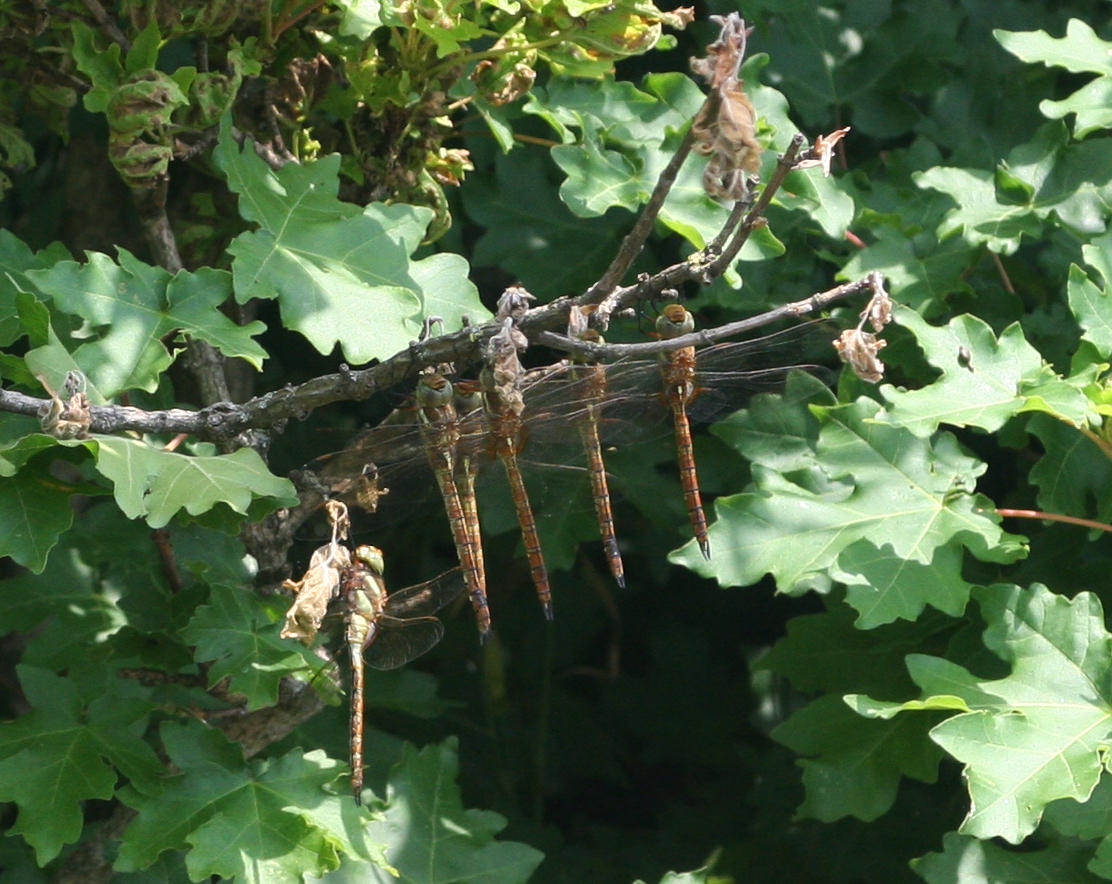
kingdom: Plantae
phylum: Tracheophyta
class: Magnoliopsida
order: Sapindales
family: Sapindaceae
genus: Acer
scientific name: Acer campestre
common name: Field maple
